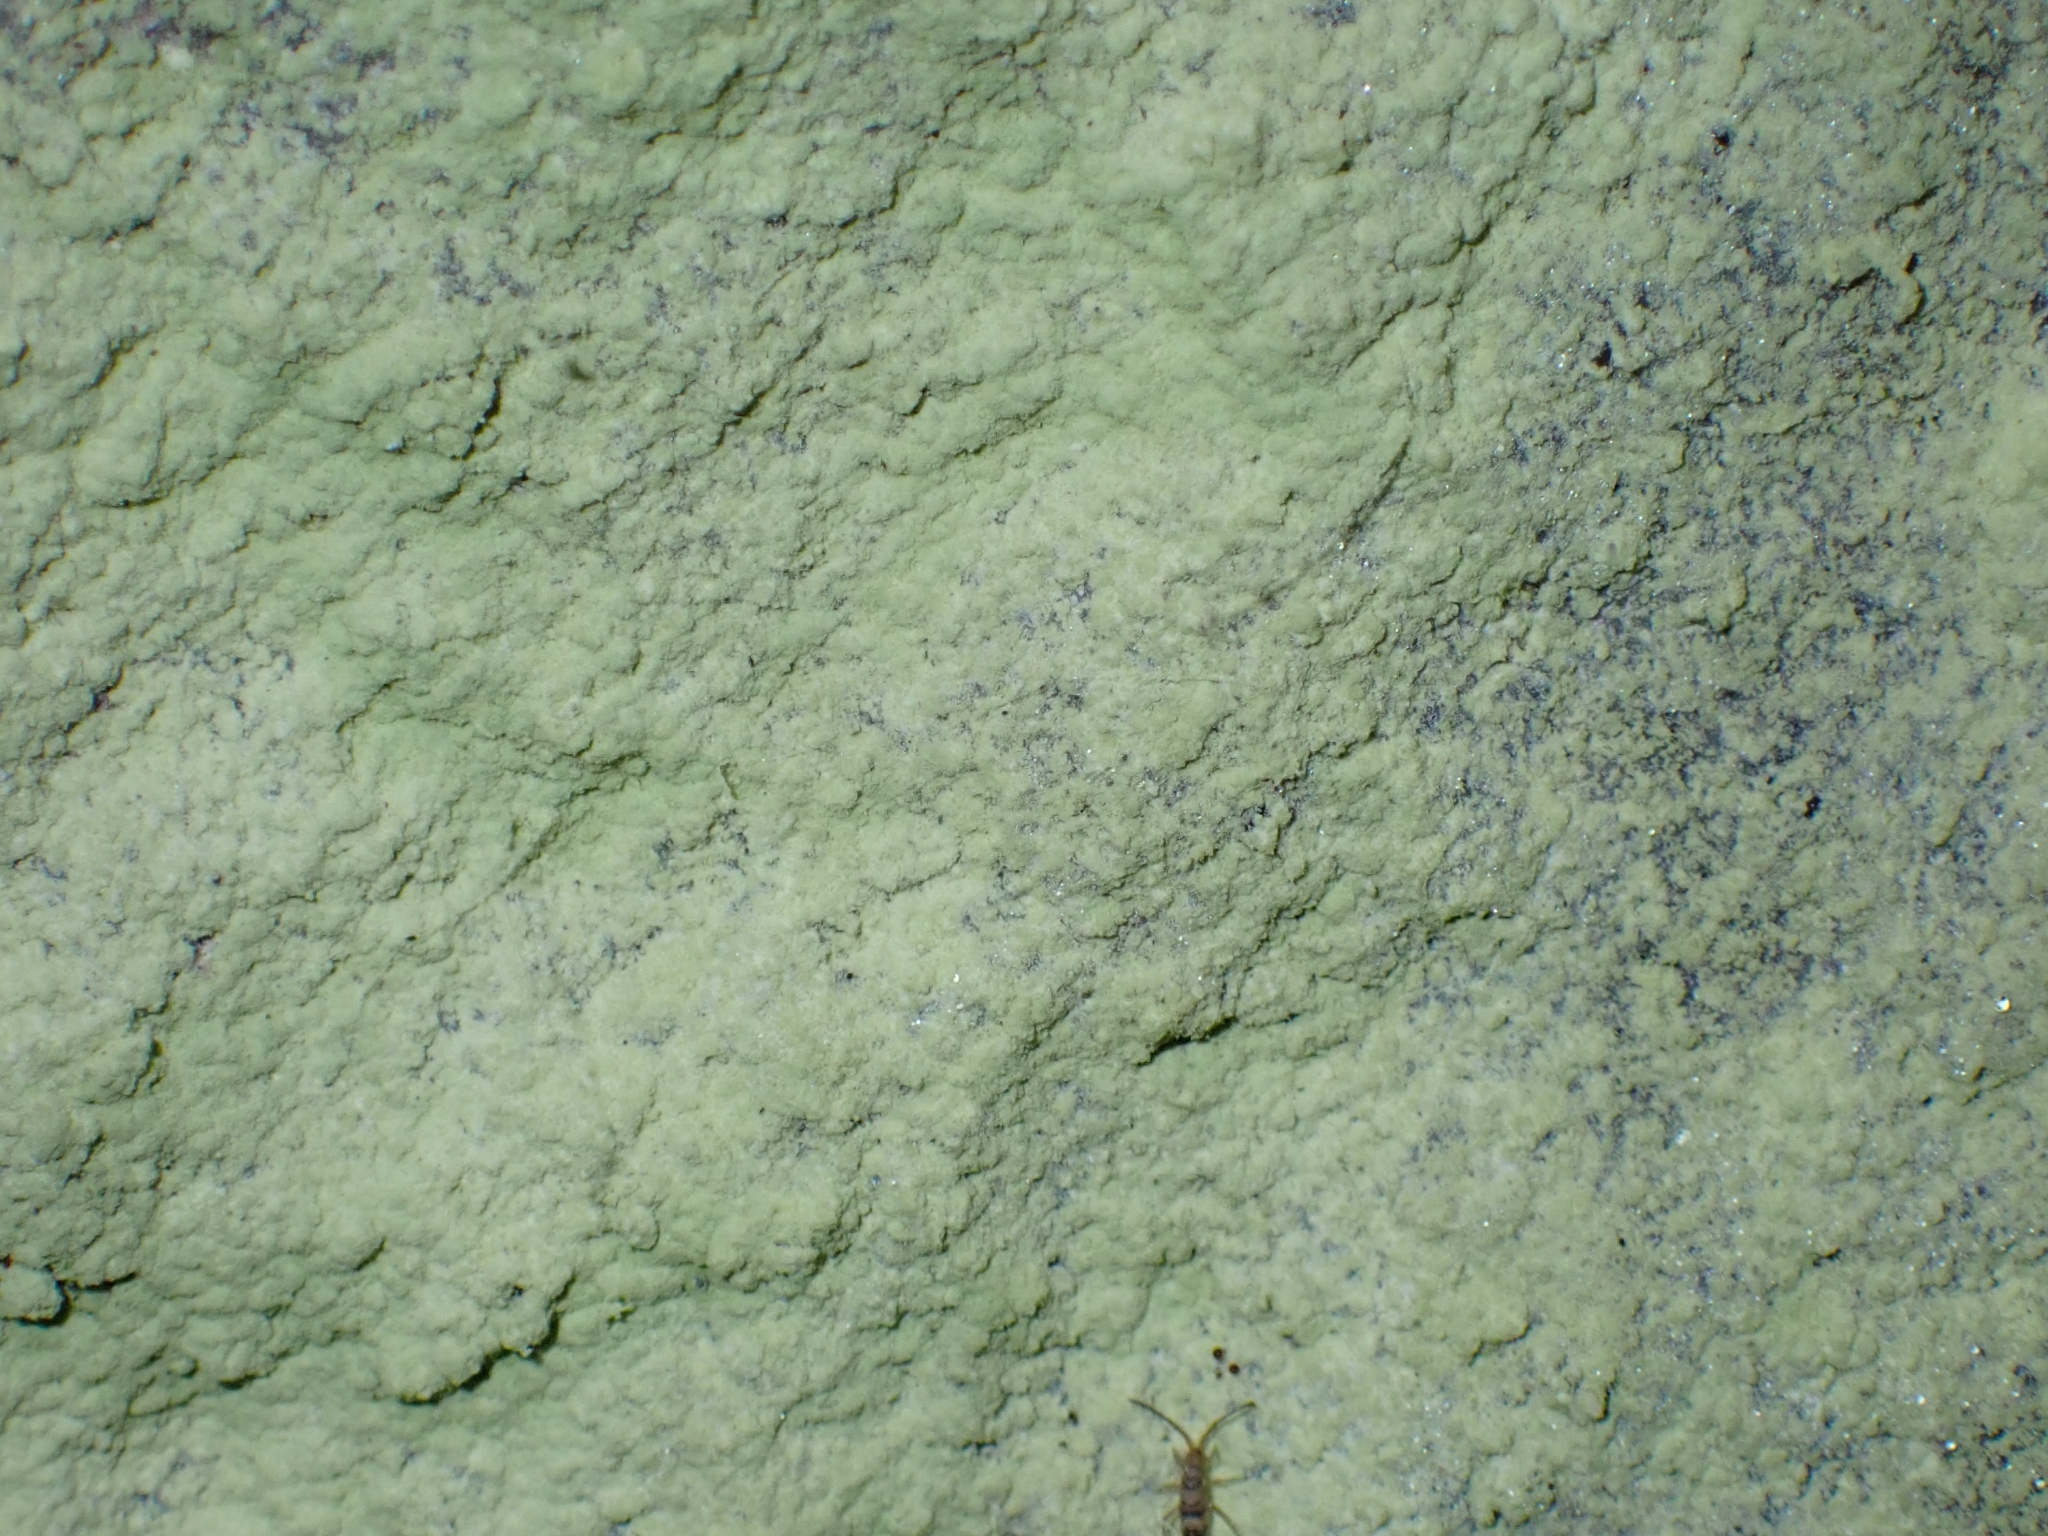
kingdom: Fungi
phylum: Ascomycota
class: Lecanoromycetes
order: Lecanorales
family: Psilolechiaceae
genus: Psilolechia
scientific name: Psilolechia lucida
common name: Sulphur dust lichen
